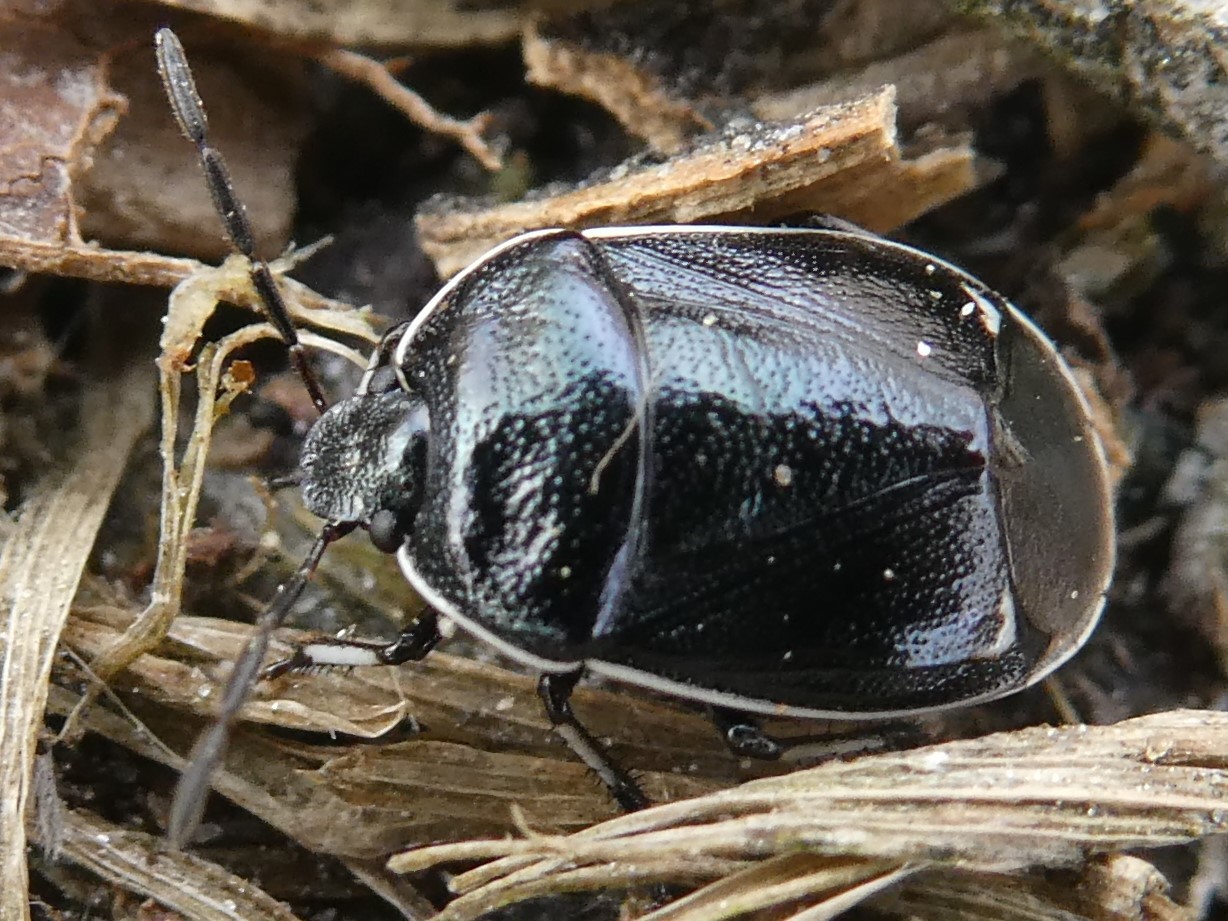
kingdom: Animalia
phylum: Arthropoda
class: Insecta
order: Hemiptera
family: Cydnidae
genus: Sehirus
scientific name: Sehirus cinctus
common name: White-margined burrower bug
